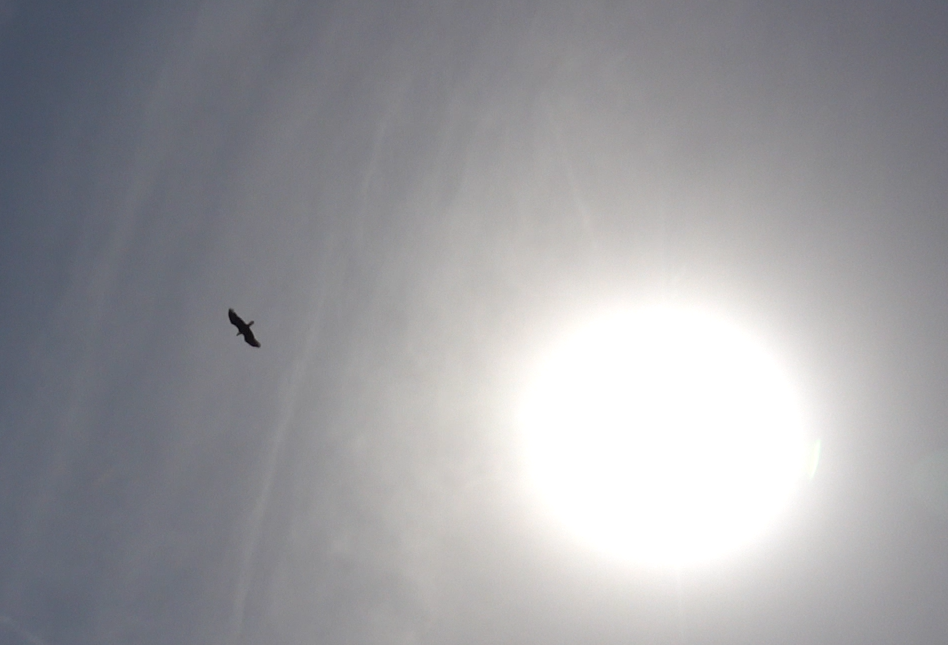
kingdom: Animalia
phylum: Chordata
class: Aves
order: Accipitriformes
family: Accipitridae
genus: Haliaeetus
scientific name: Haliaeetus leucocephalus
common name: Bald eagle
